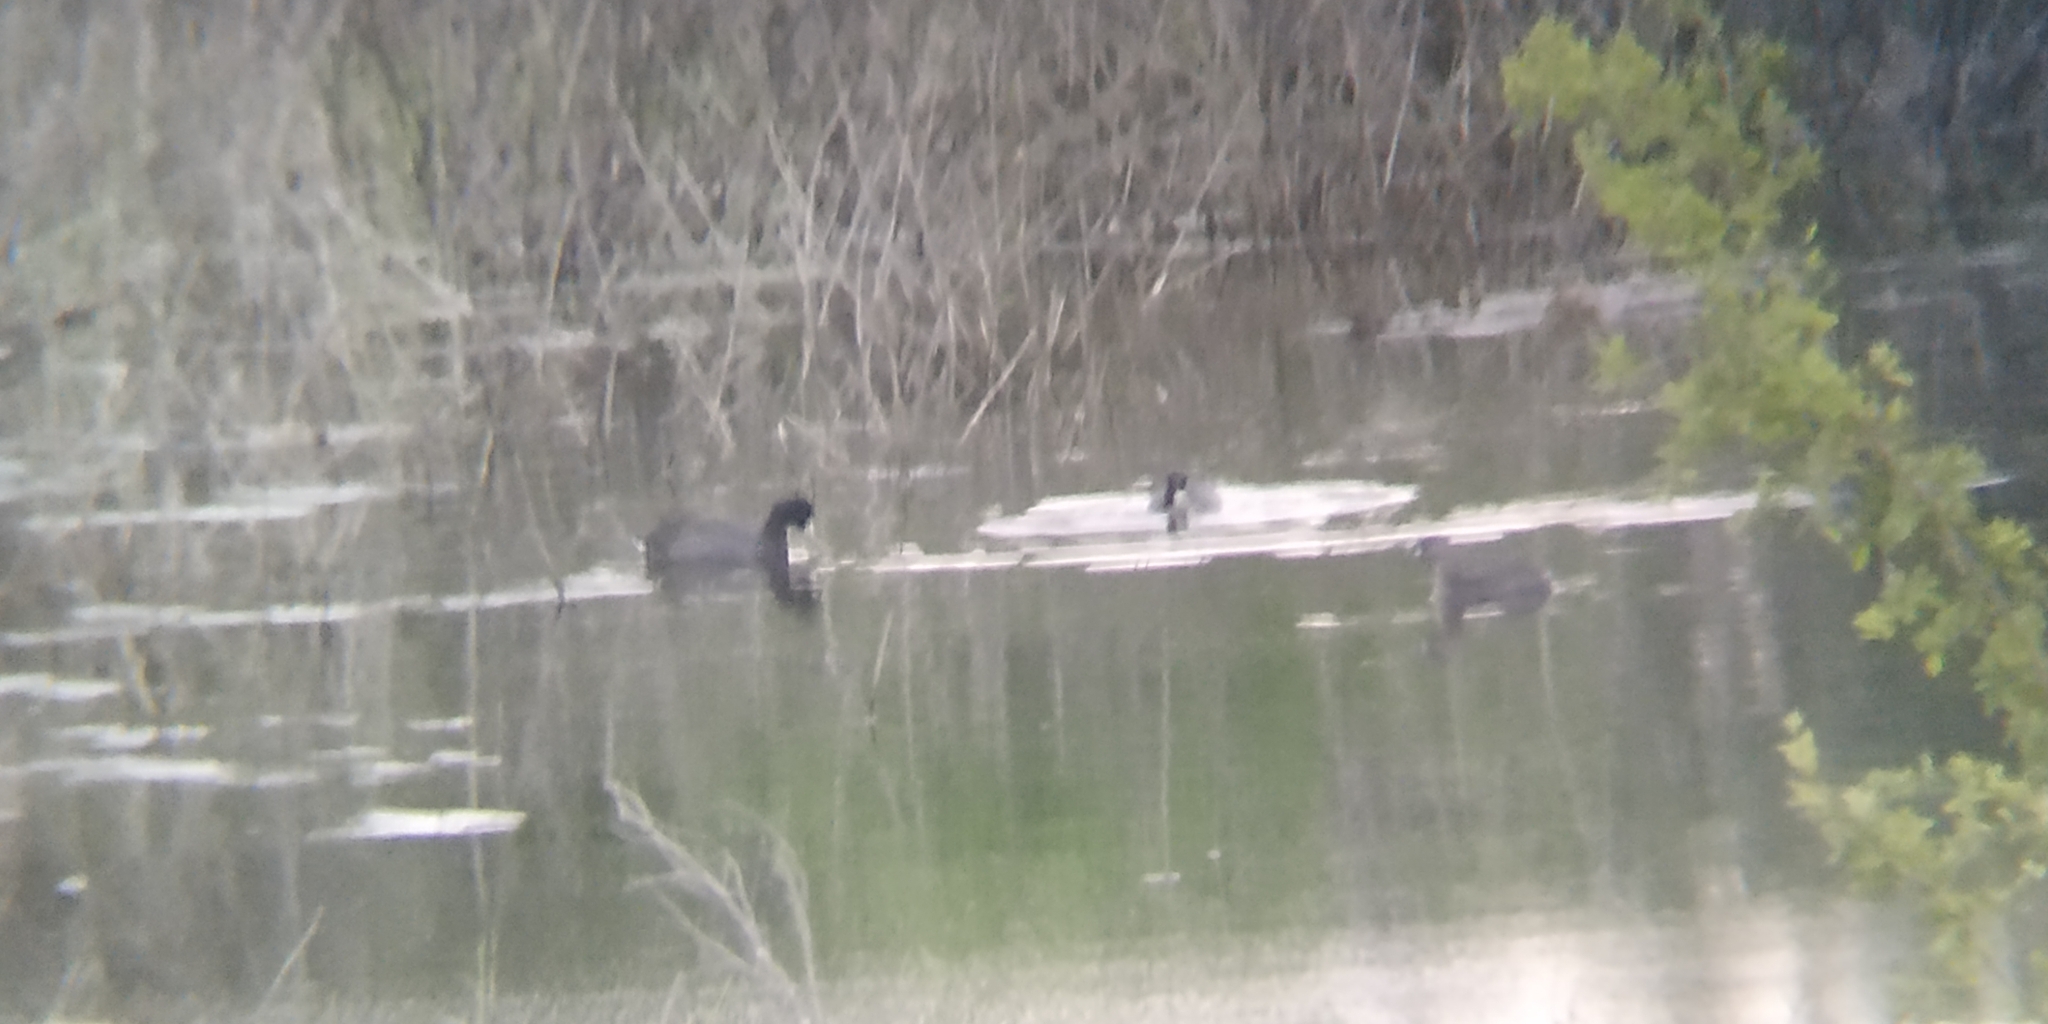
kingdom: Animalia
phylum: Chordata
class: Aves
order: Gruiformes
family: Rallidae
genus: Fulica
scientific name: Fulica americana
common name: American coot
